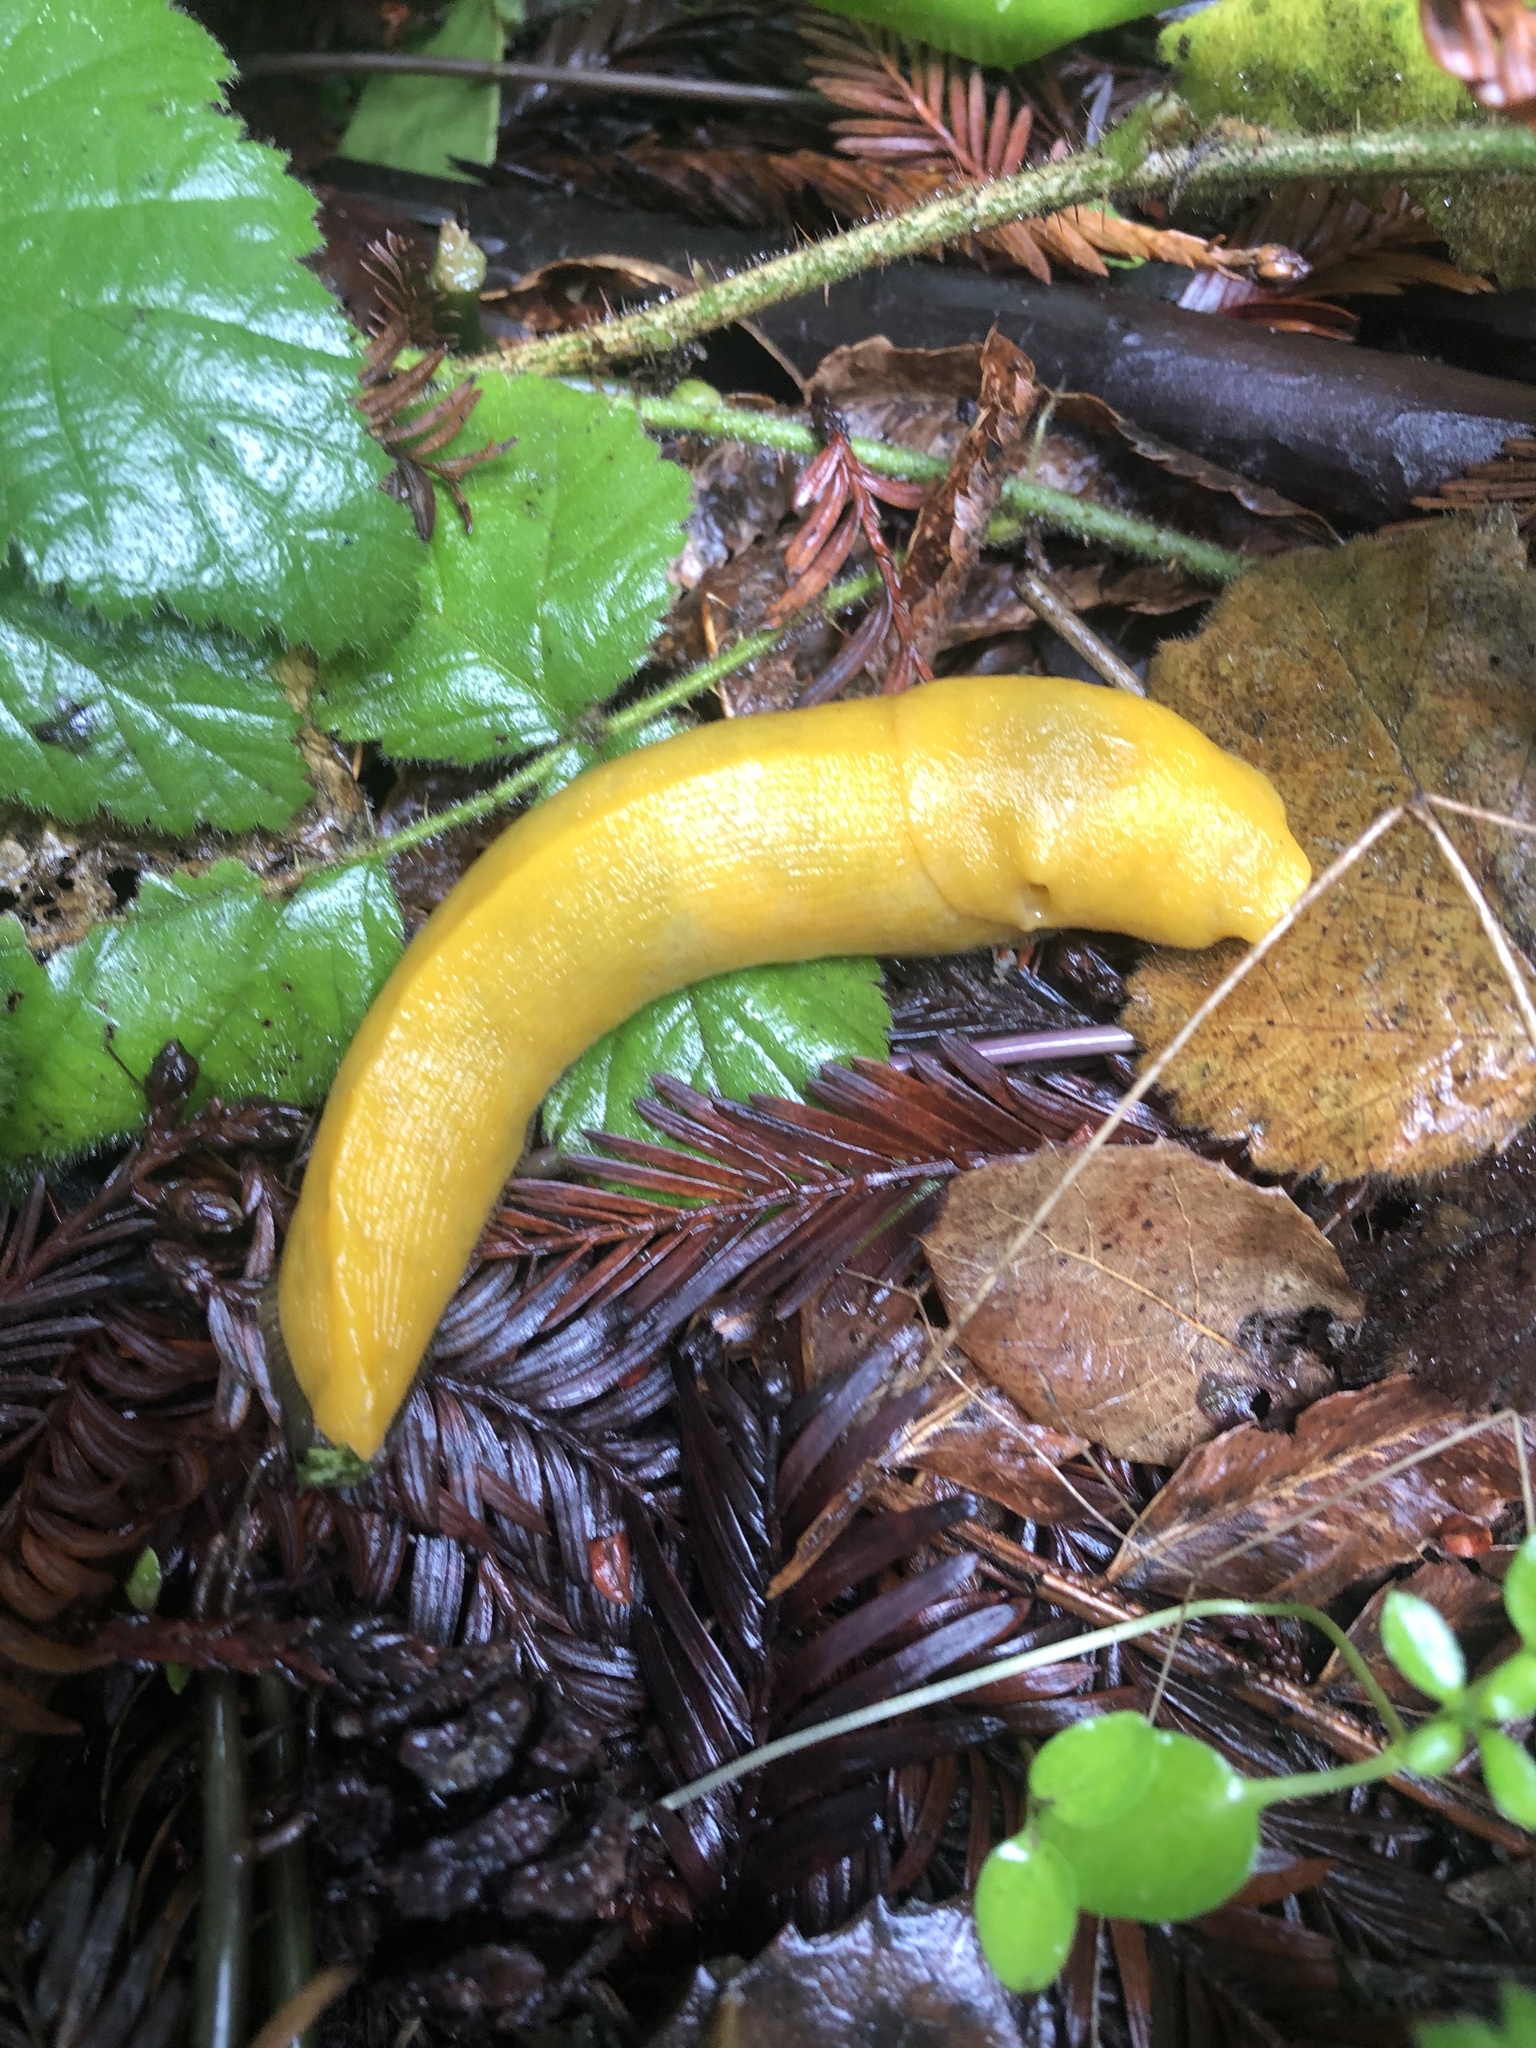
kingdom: Animalia
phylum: Mollusca
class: Gastropoda
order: Stylommatophora
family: Ariolimacidae
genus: Ariolimax
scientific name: Ariolimax dolichophallus
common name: Slender banana slug
